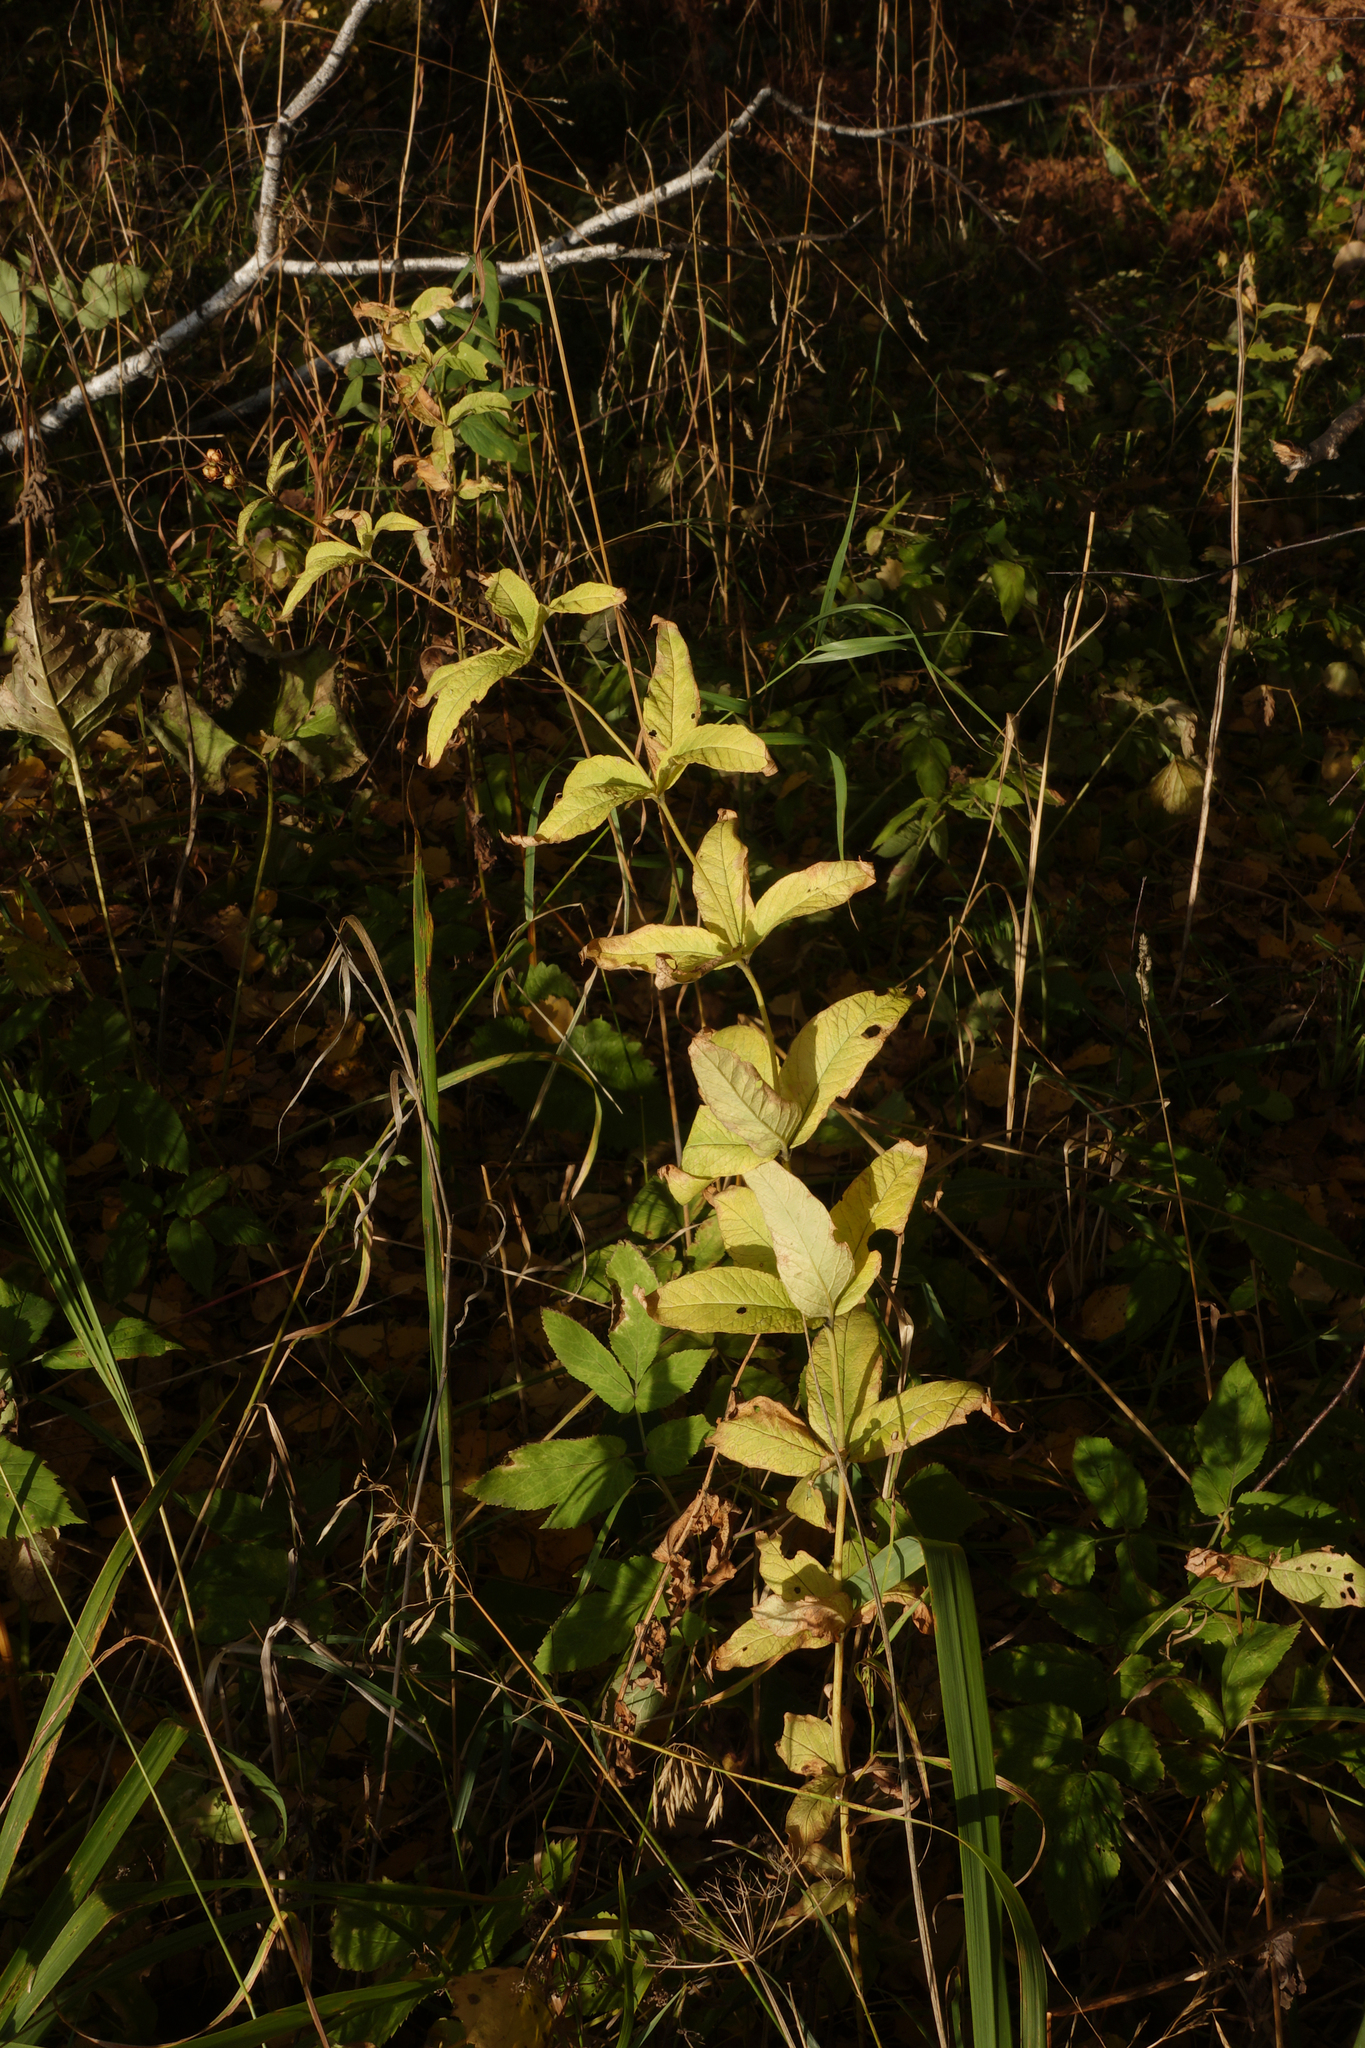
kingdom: Plantae
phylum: Tracheophyta
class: Magnoliopsida
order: Ericales
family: Primulaceae
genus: Lysimachia
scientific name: Lysimachia vulgaris
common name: Yellow loosestrife
